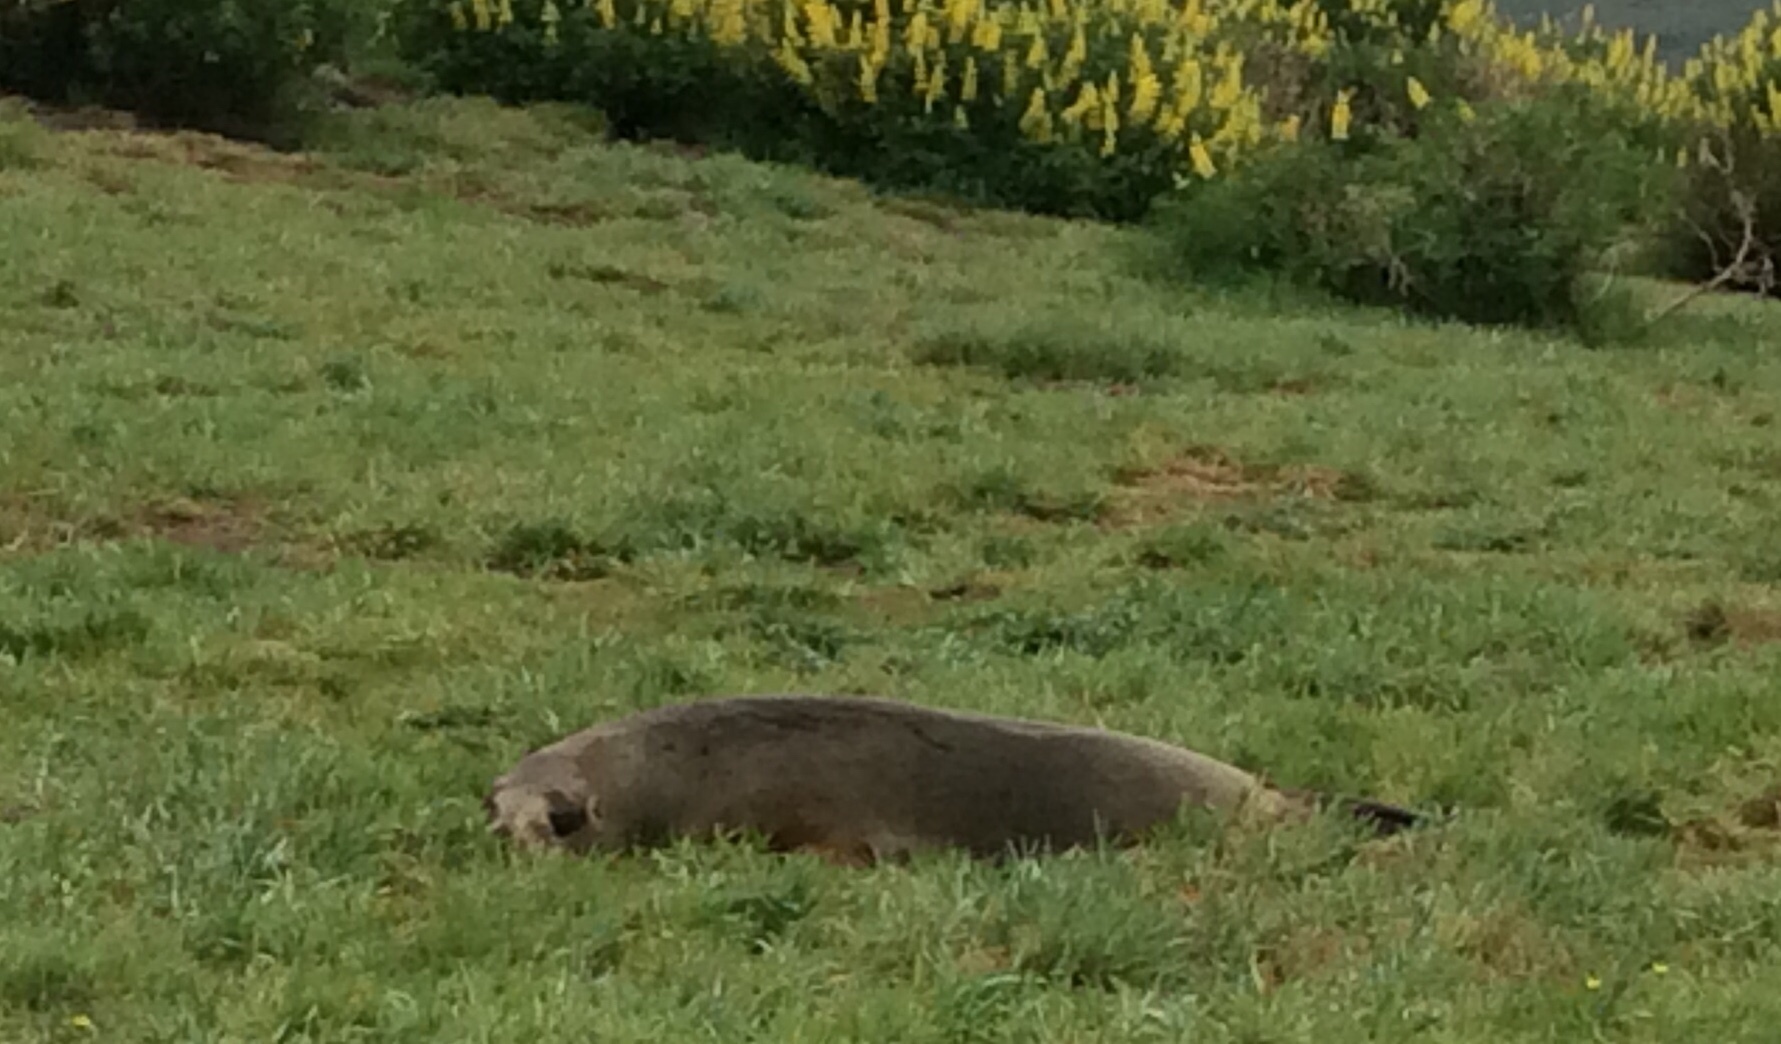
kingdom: Animalia
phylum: Chordata
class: Mammalia
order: Carnivora
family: Otariidae
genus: Phocarctos
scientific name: Phocarctos hookeri
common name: New zealand sea lion
